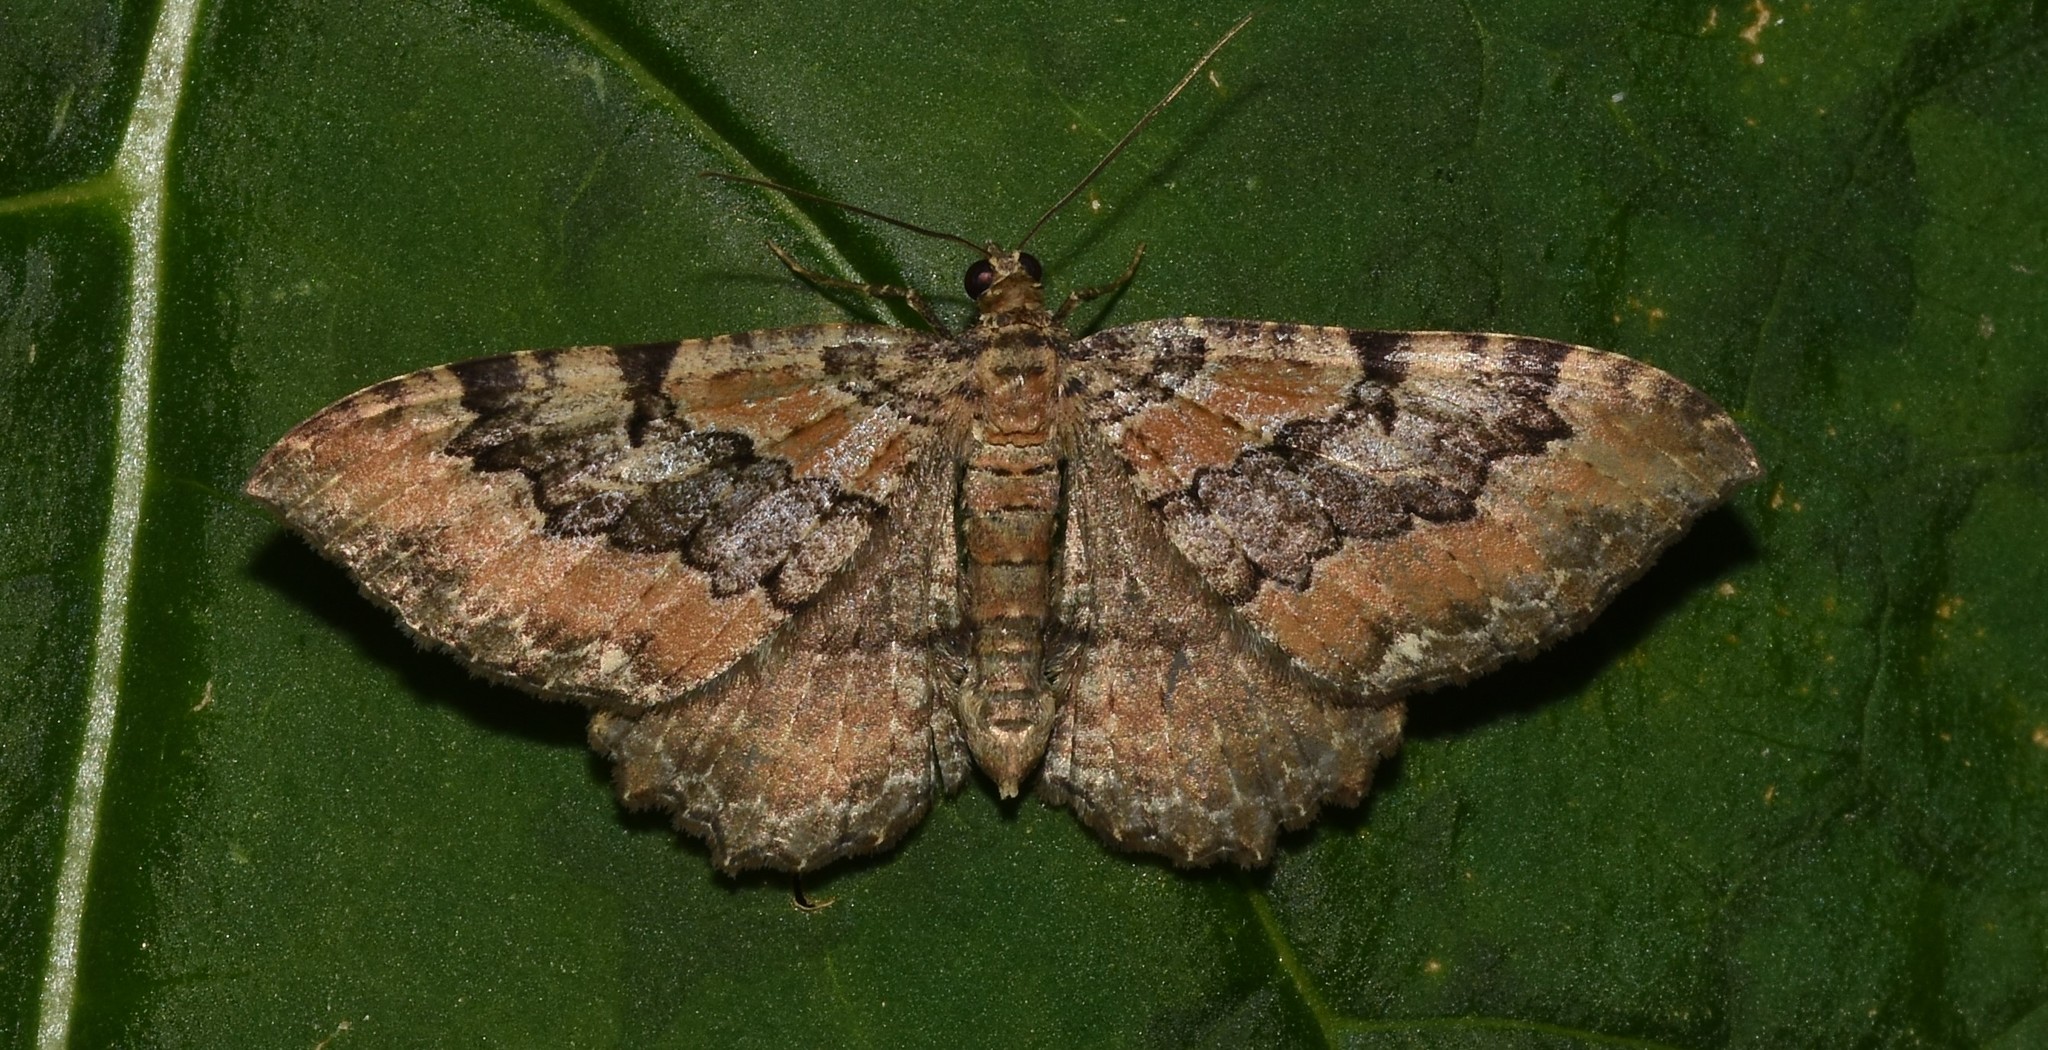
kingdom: Animalia
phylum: Arthropoda
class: Insecta
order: Lepidoptera
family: Geometridae
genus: Rheumaptera
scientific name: Rheumaptera
